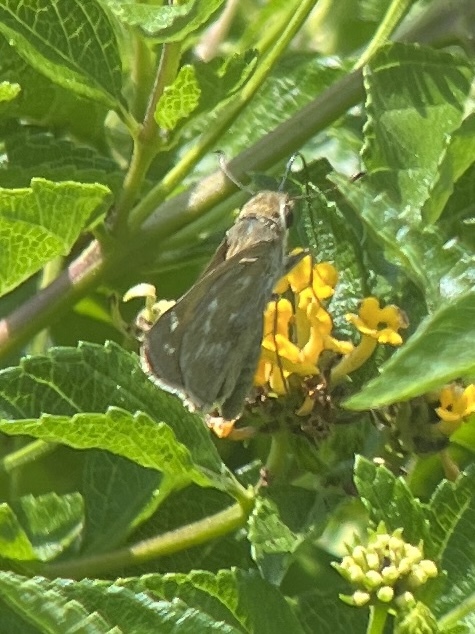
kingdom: Animalia
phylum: Arthropoda
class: Insecta
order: Lepidoptera
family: Hesperiidae
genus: Atalopedes
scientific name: Atalopedes
